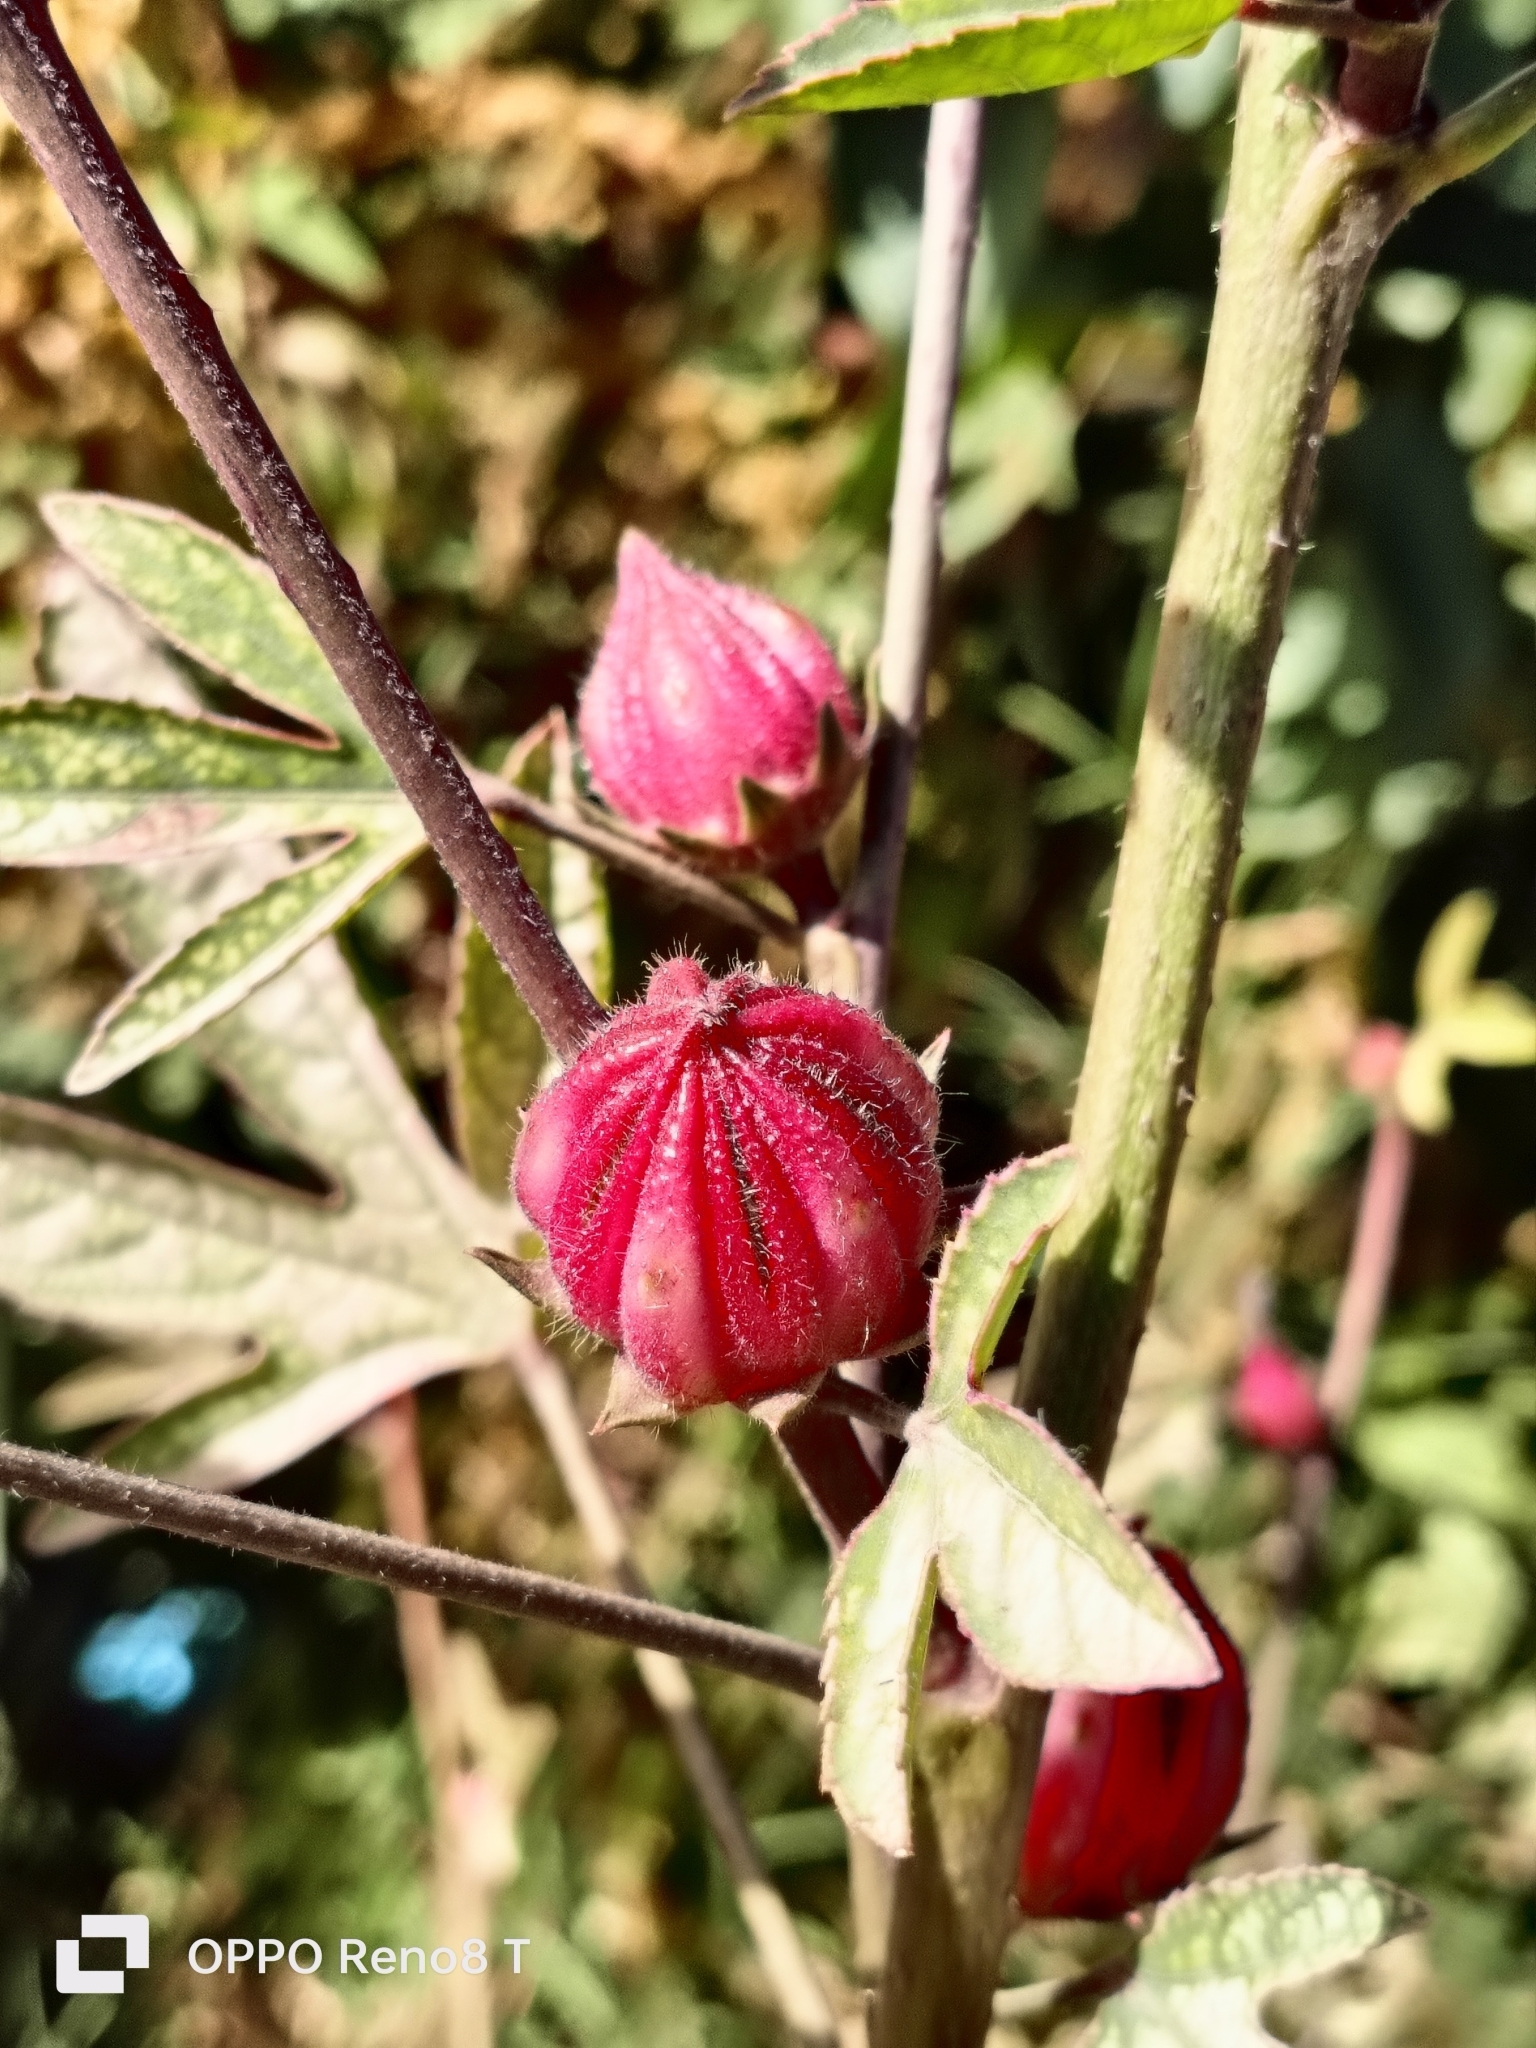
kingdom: Plantae
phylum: Tracheophyta
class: Magnoliopsida
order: Malvales
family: Malvaceae
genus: Hibiscus
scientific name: Hibiscus sabdariffa
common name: Roselle
